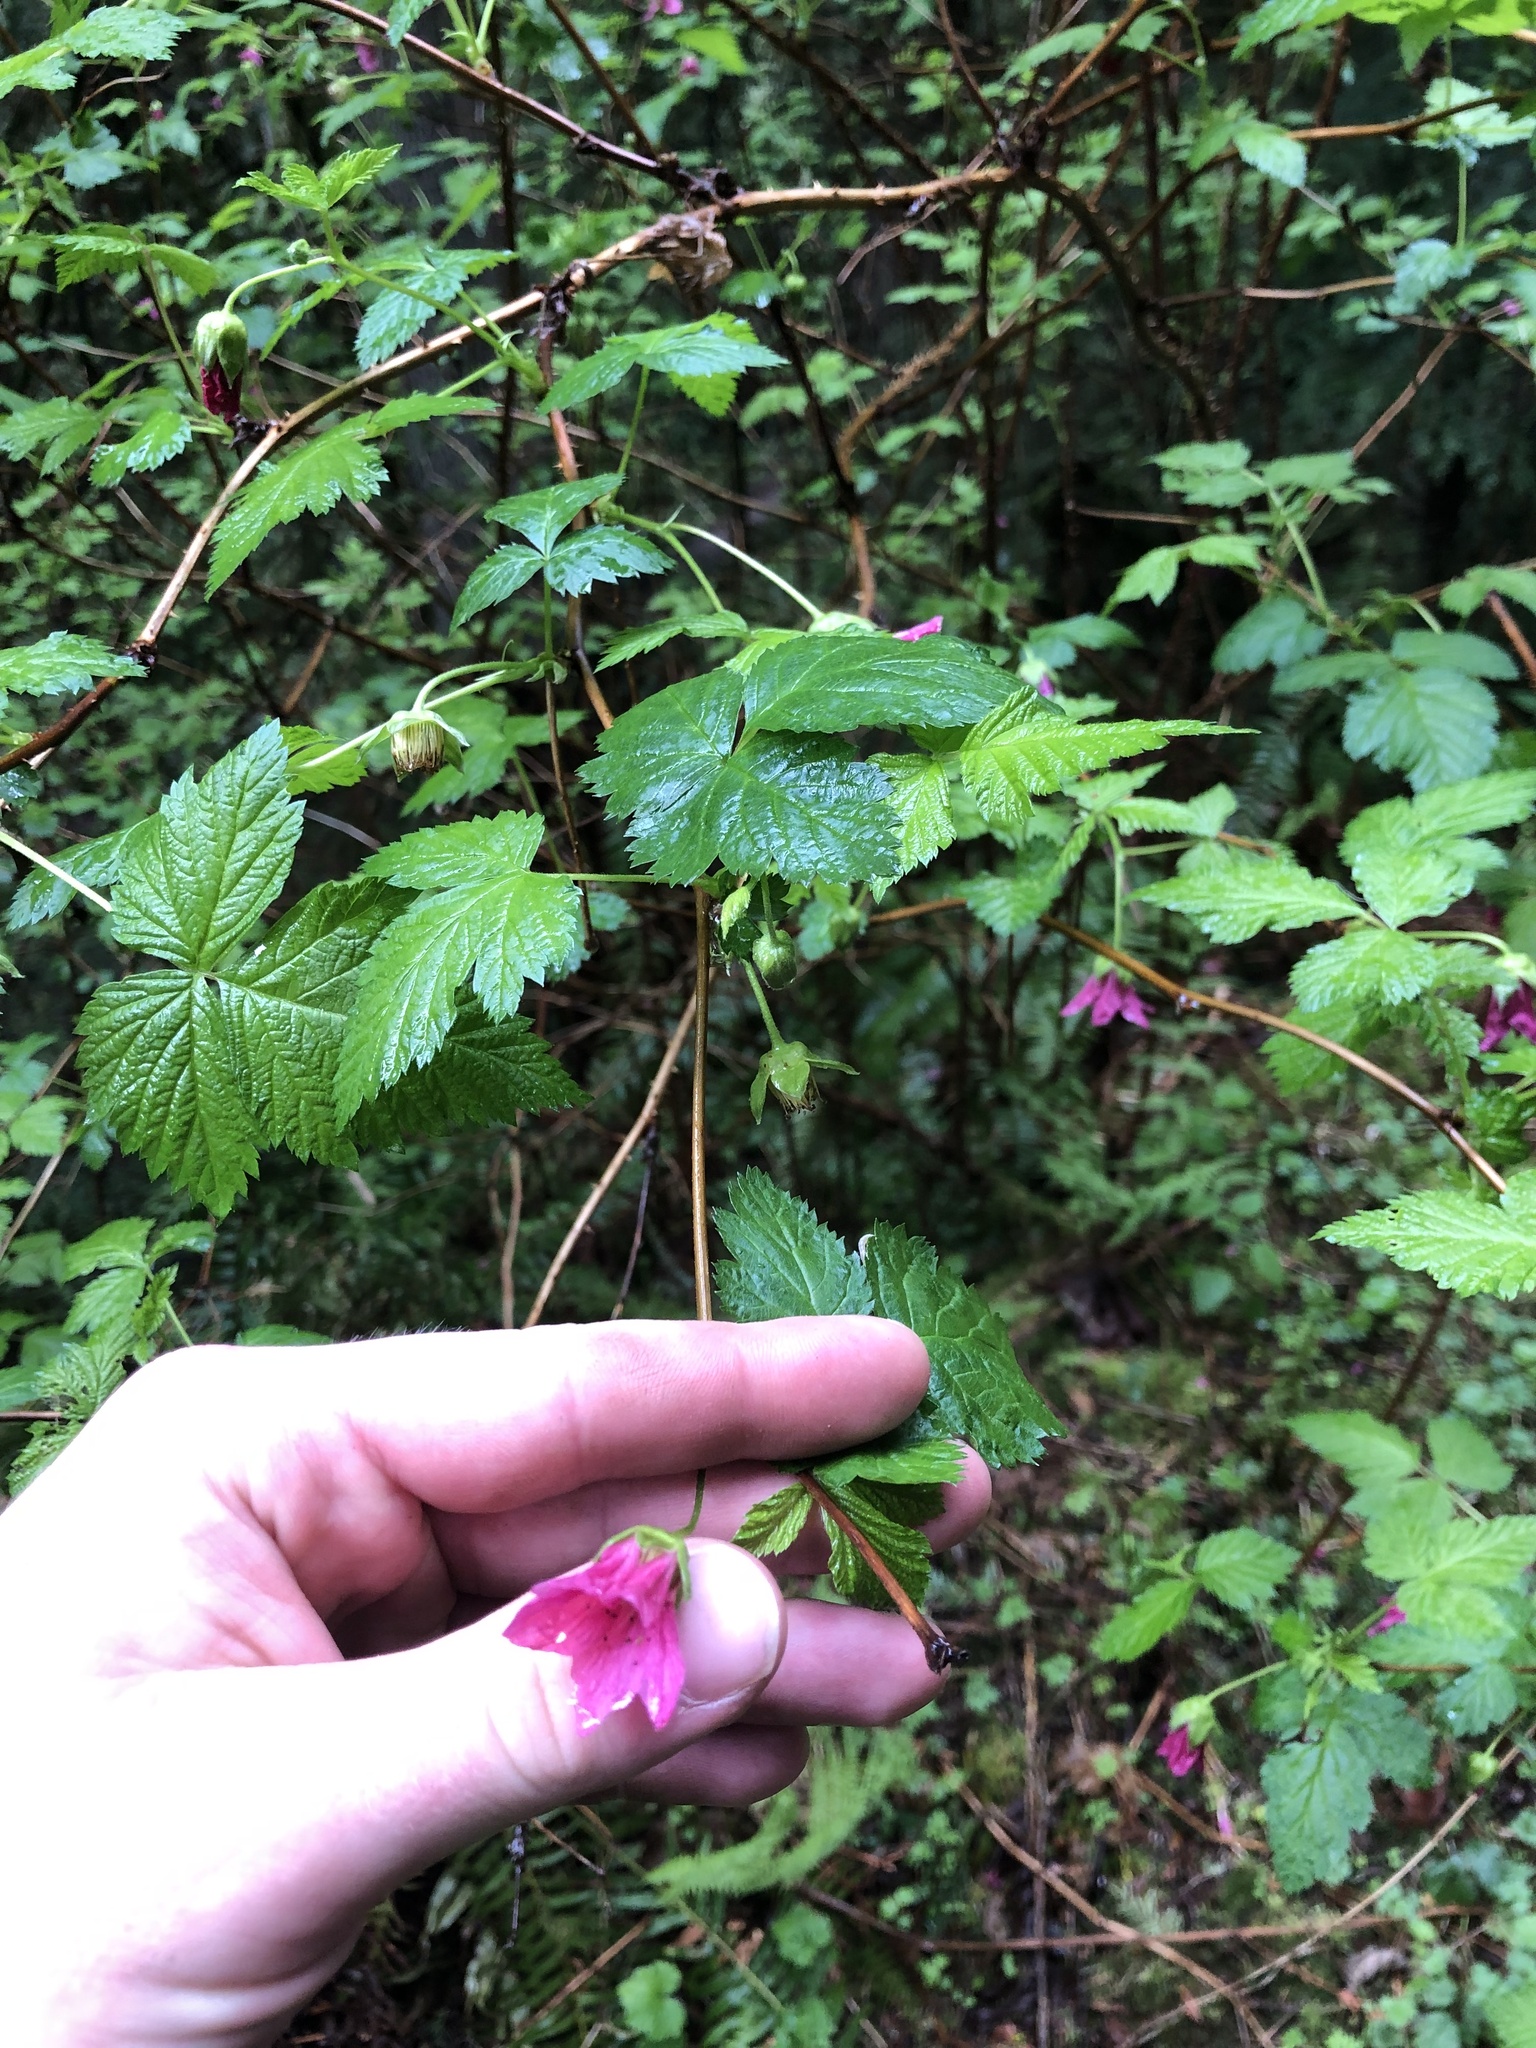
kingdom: Plantae
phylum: Tracheophyta
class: Magnoliopsida
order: Rosales
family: Rosaceae
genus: Rubus
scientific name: Rubus spectabilis
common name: Salmonberry
